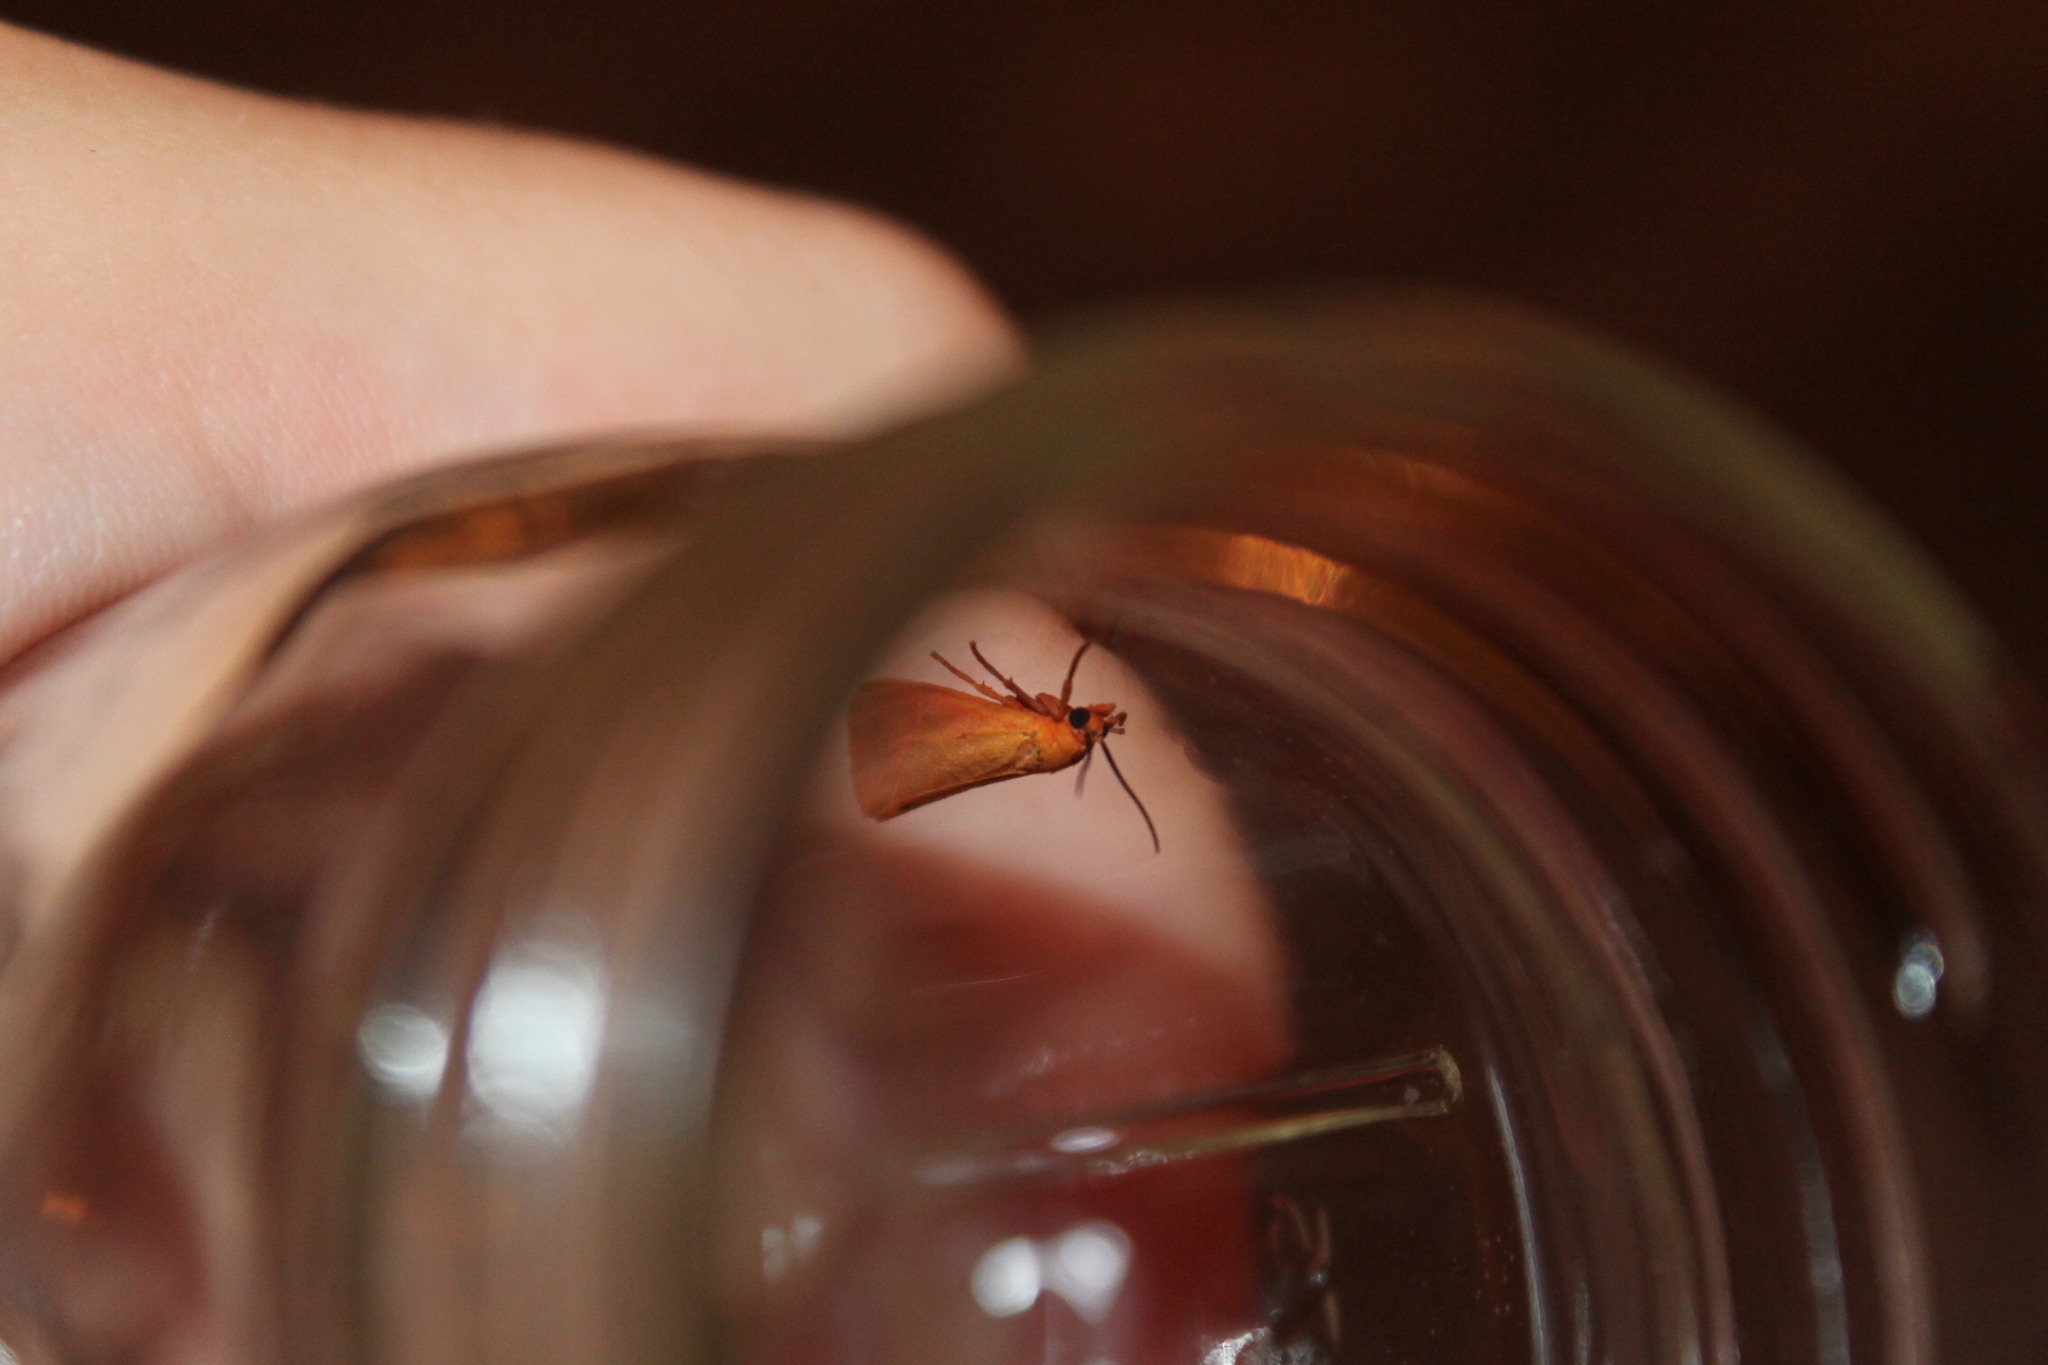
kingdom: Animalia
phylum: Arthropoda
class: Insecta
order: Lepidoptera
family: Erebidae
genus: Virbia
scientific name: Virbia aurantiaca
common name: Orange virbia moth
